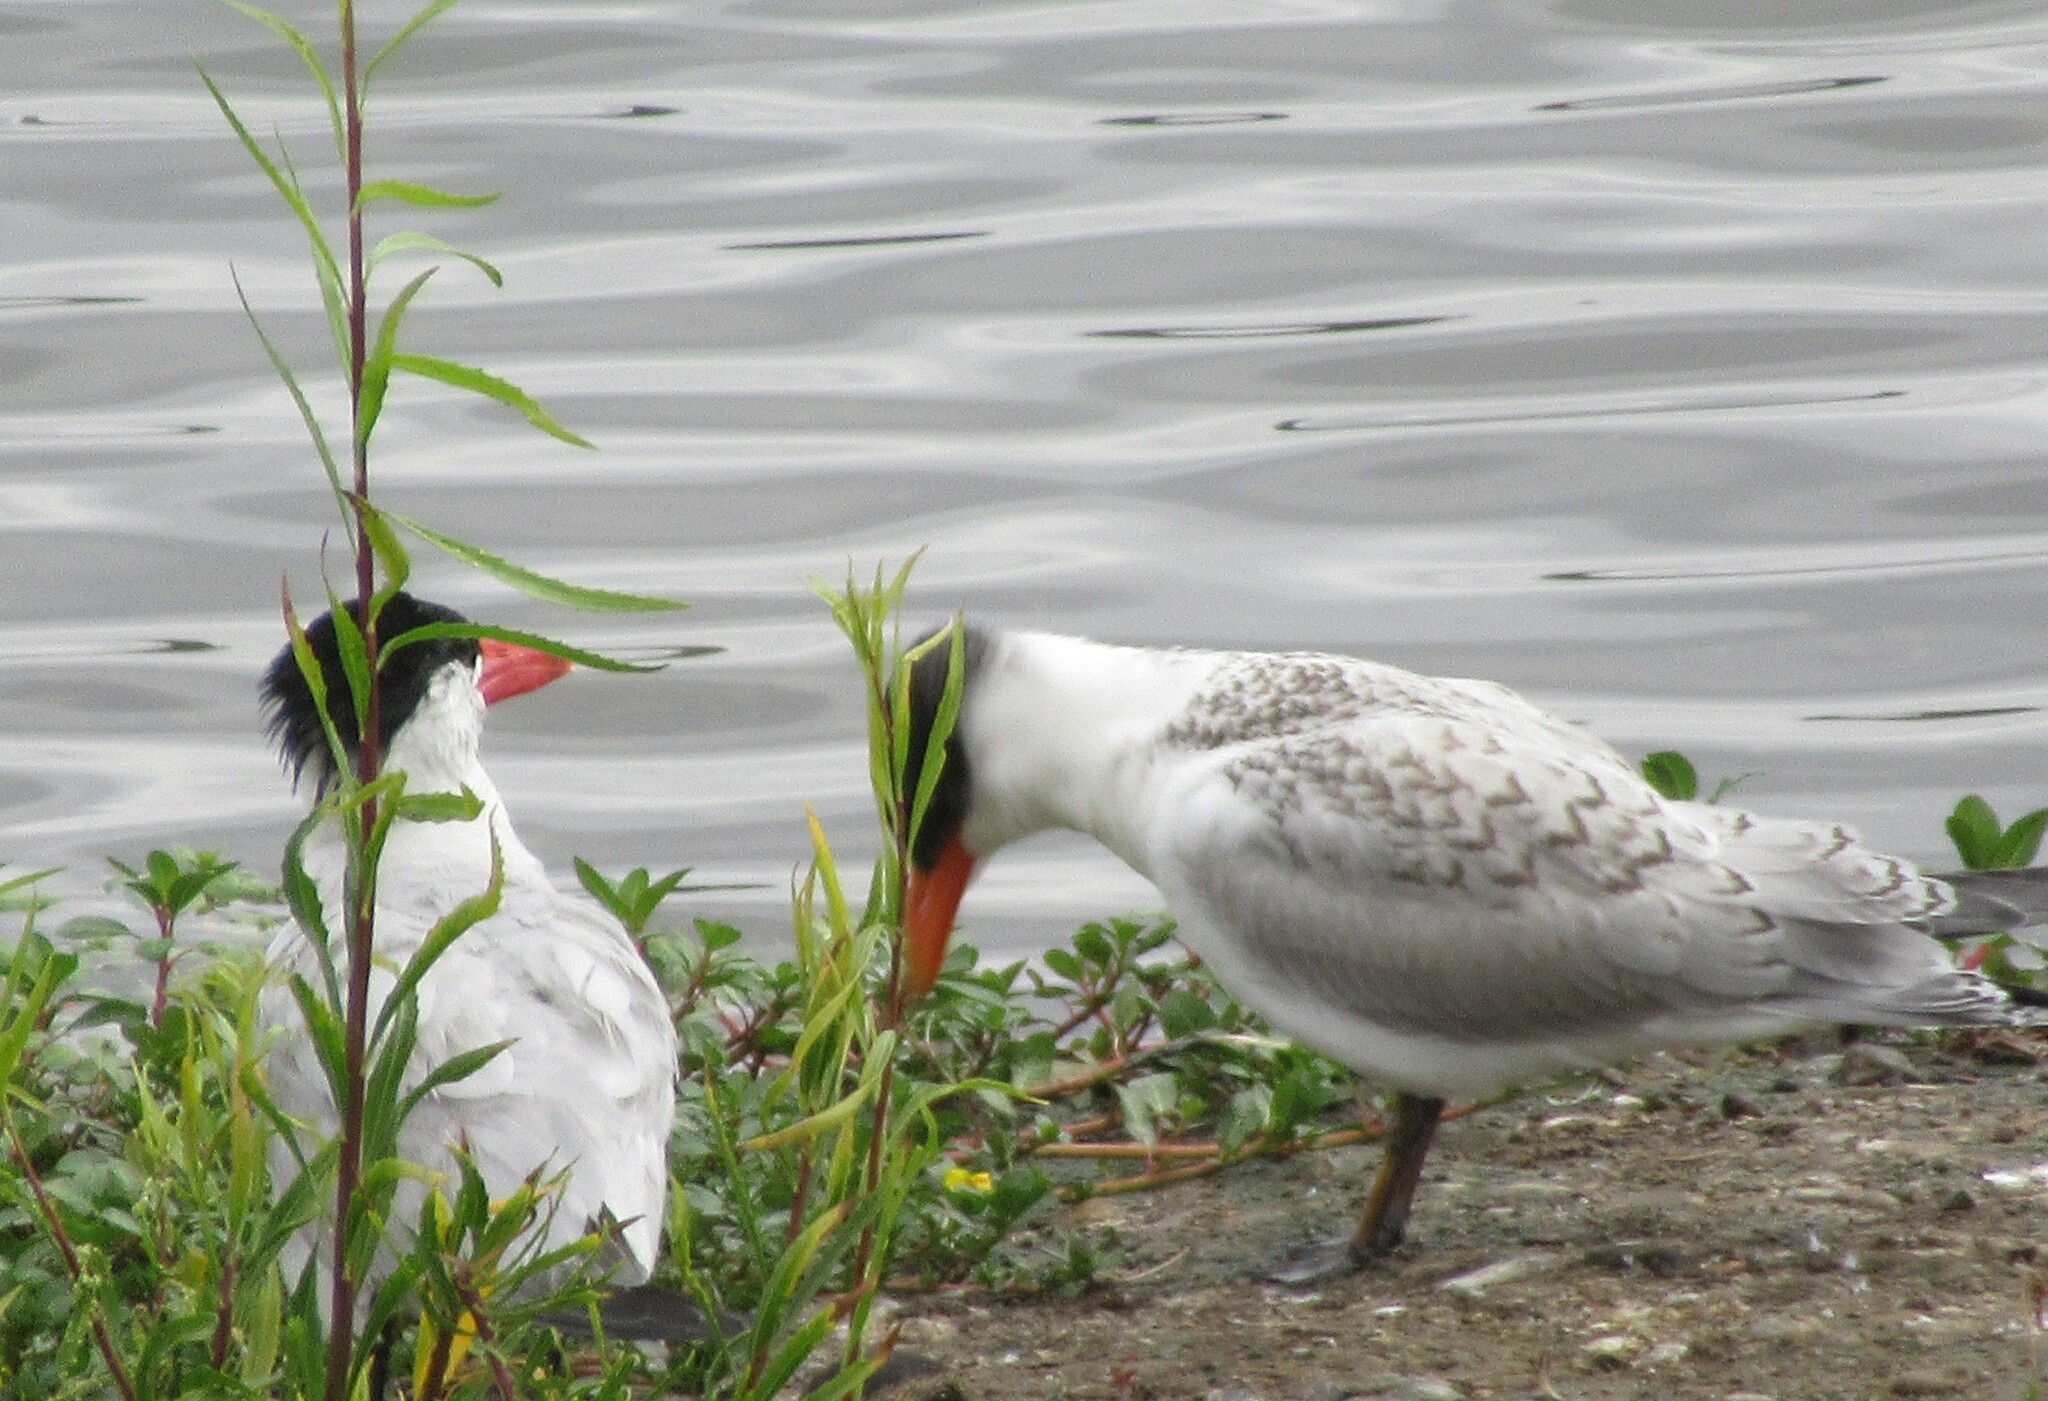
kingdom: Animalia
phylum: Chordata
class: Aves
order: Charadriiformes
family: Laridae
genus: Hydroprogne
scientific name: Hydroprogne caspia
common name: Caspian tern
